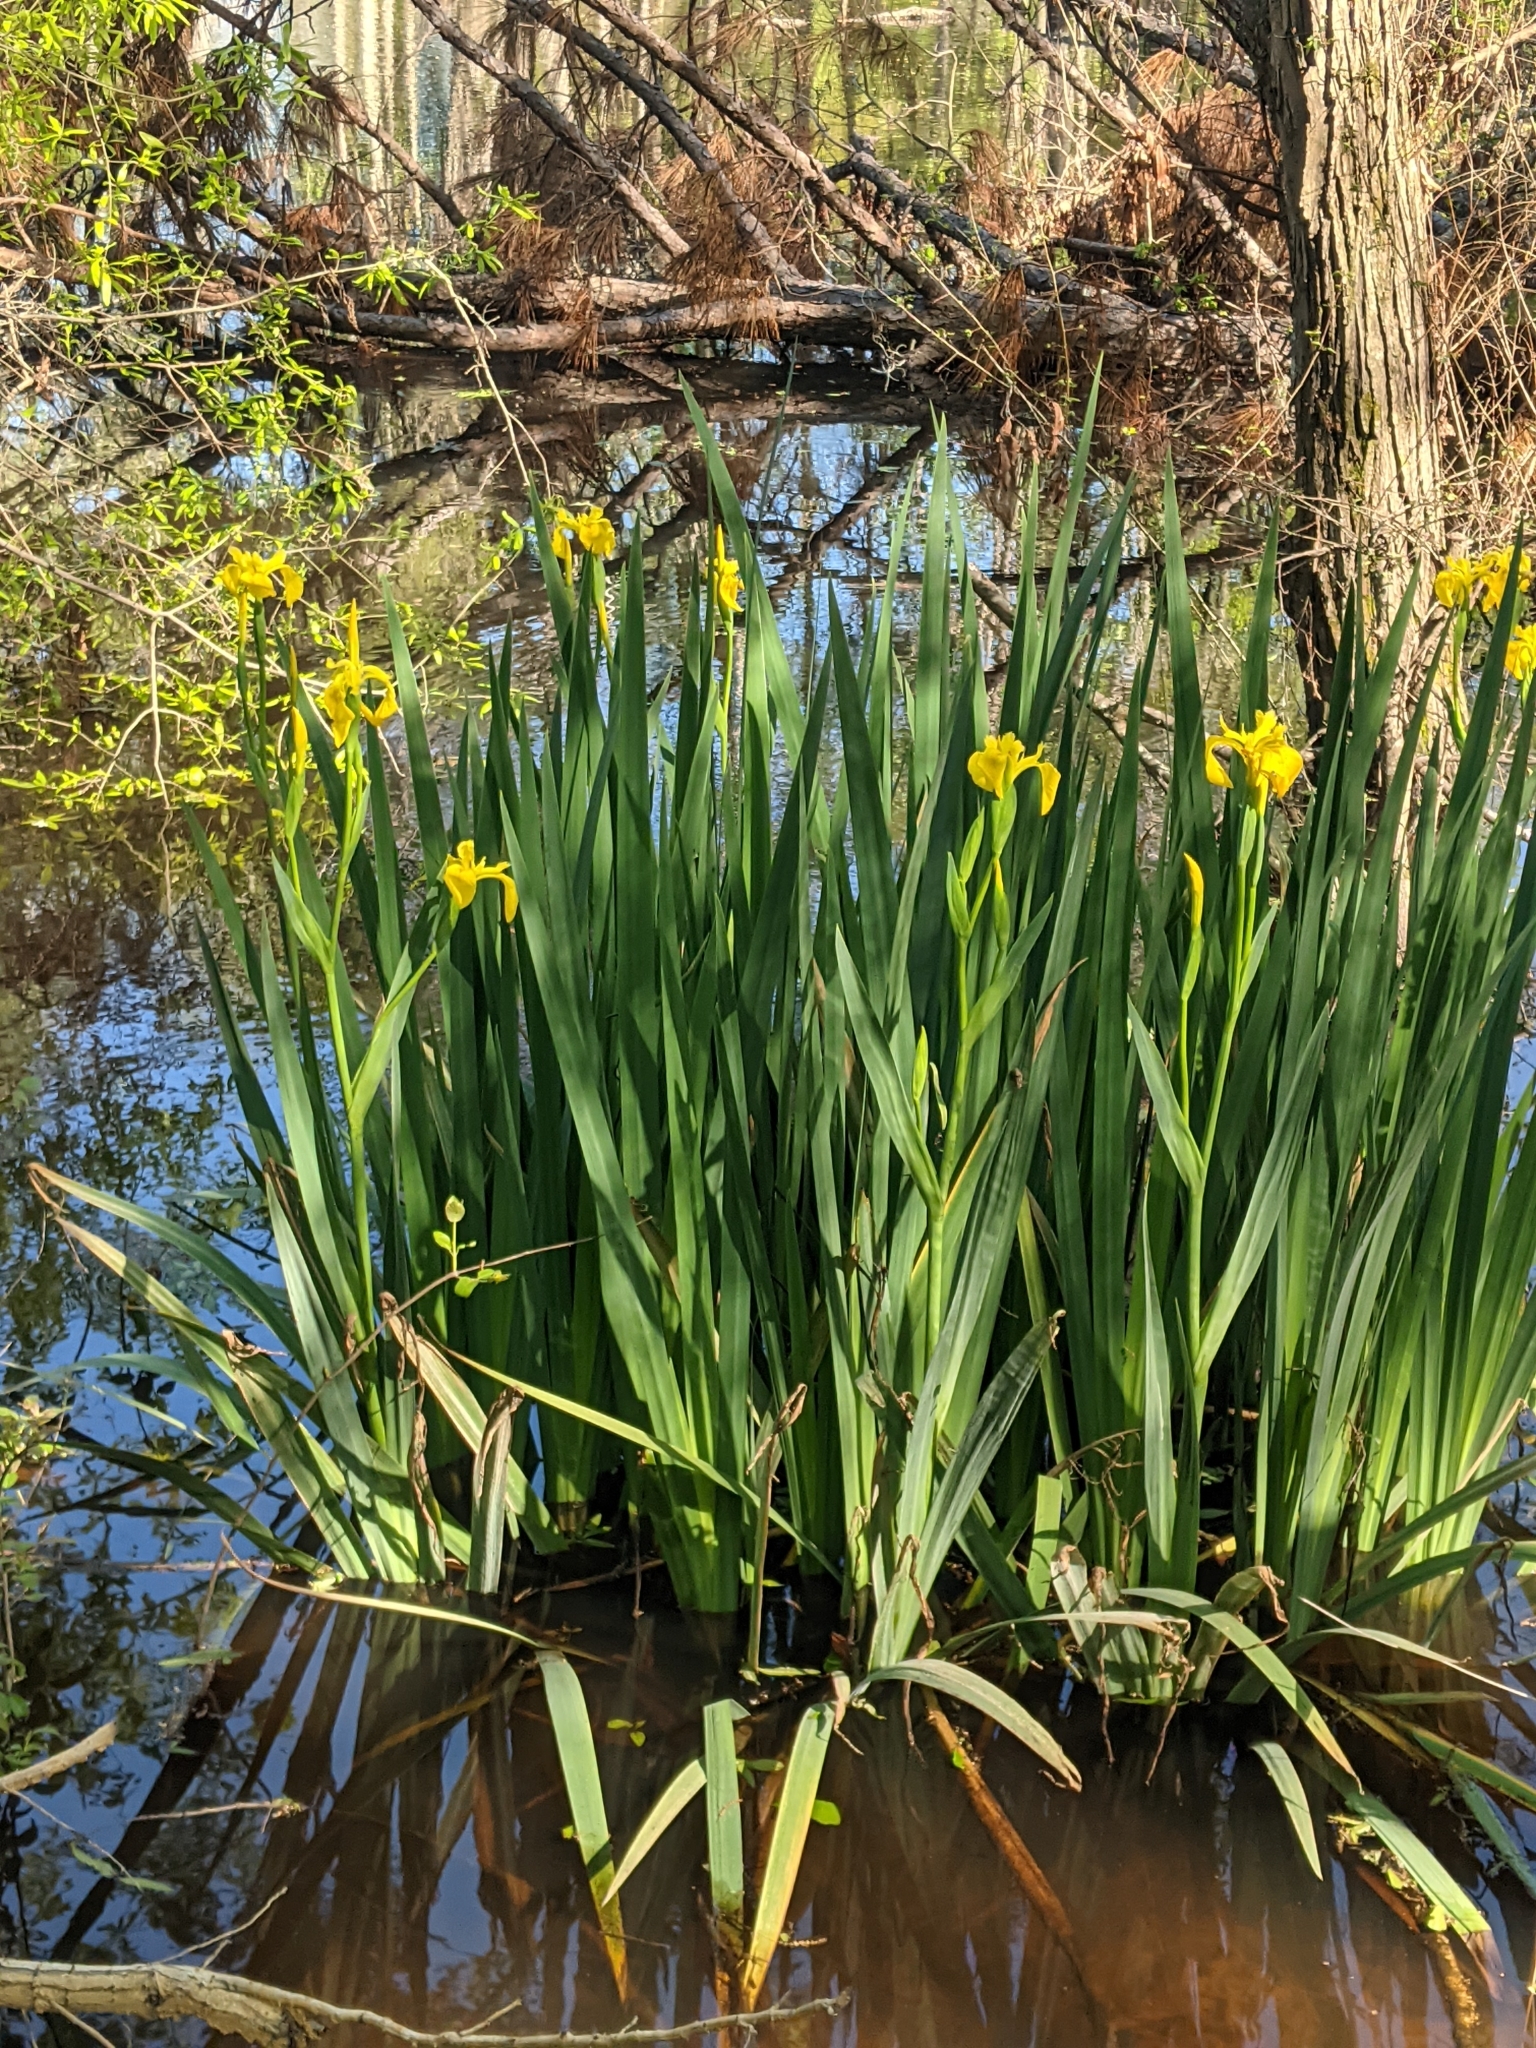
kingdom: Plantae
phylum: Tracheophyta
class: Liliopsida
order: Asparagales
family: Iridaceae
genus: Iris
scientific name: Iris pseudacorus
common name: Yellow flag
